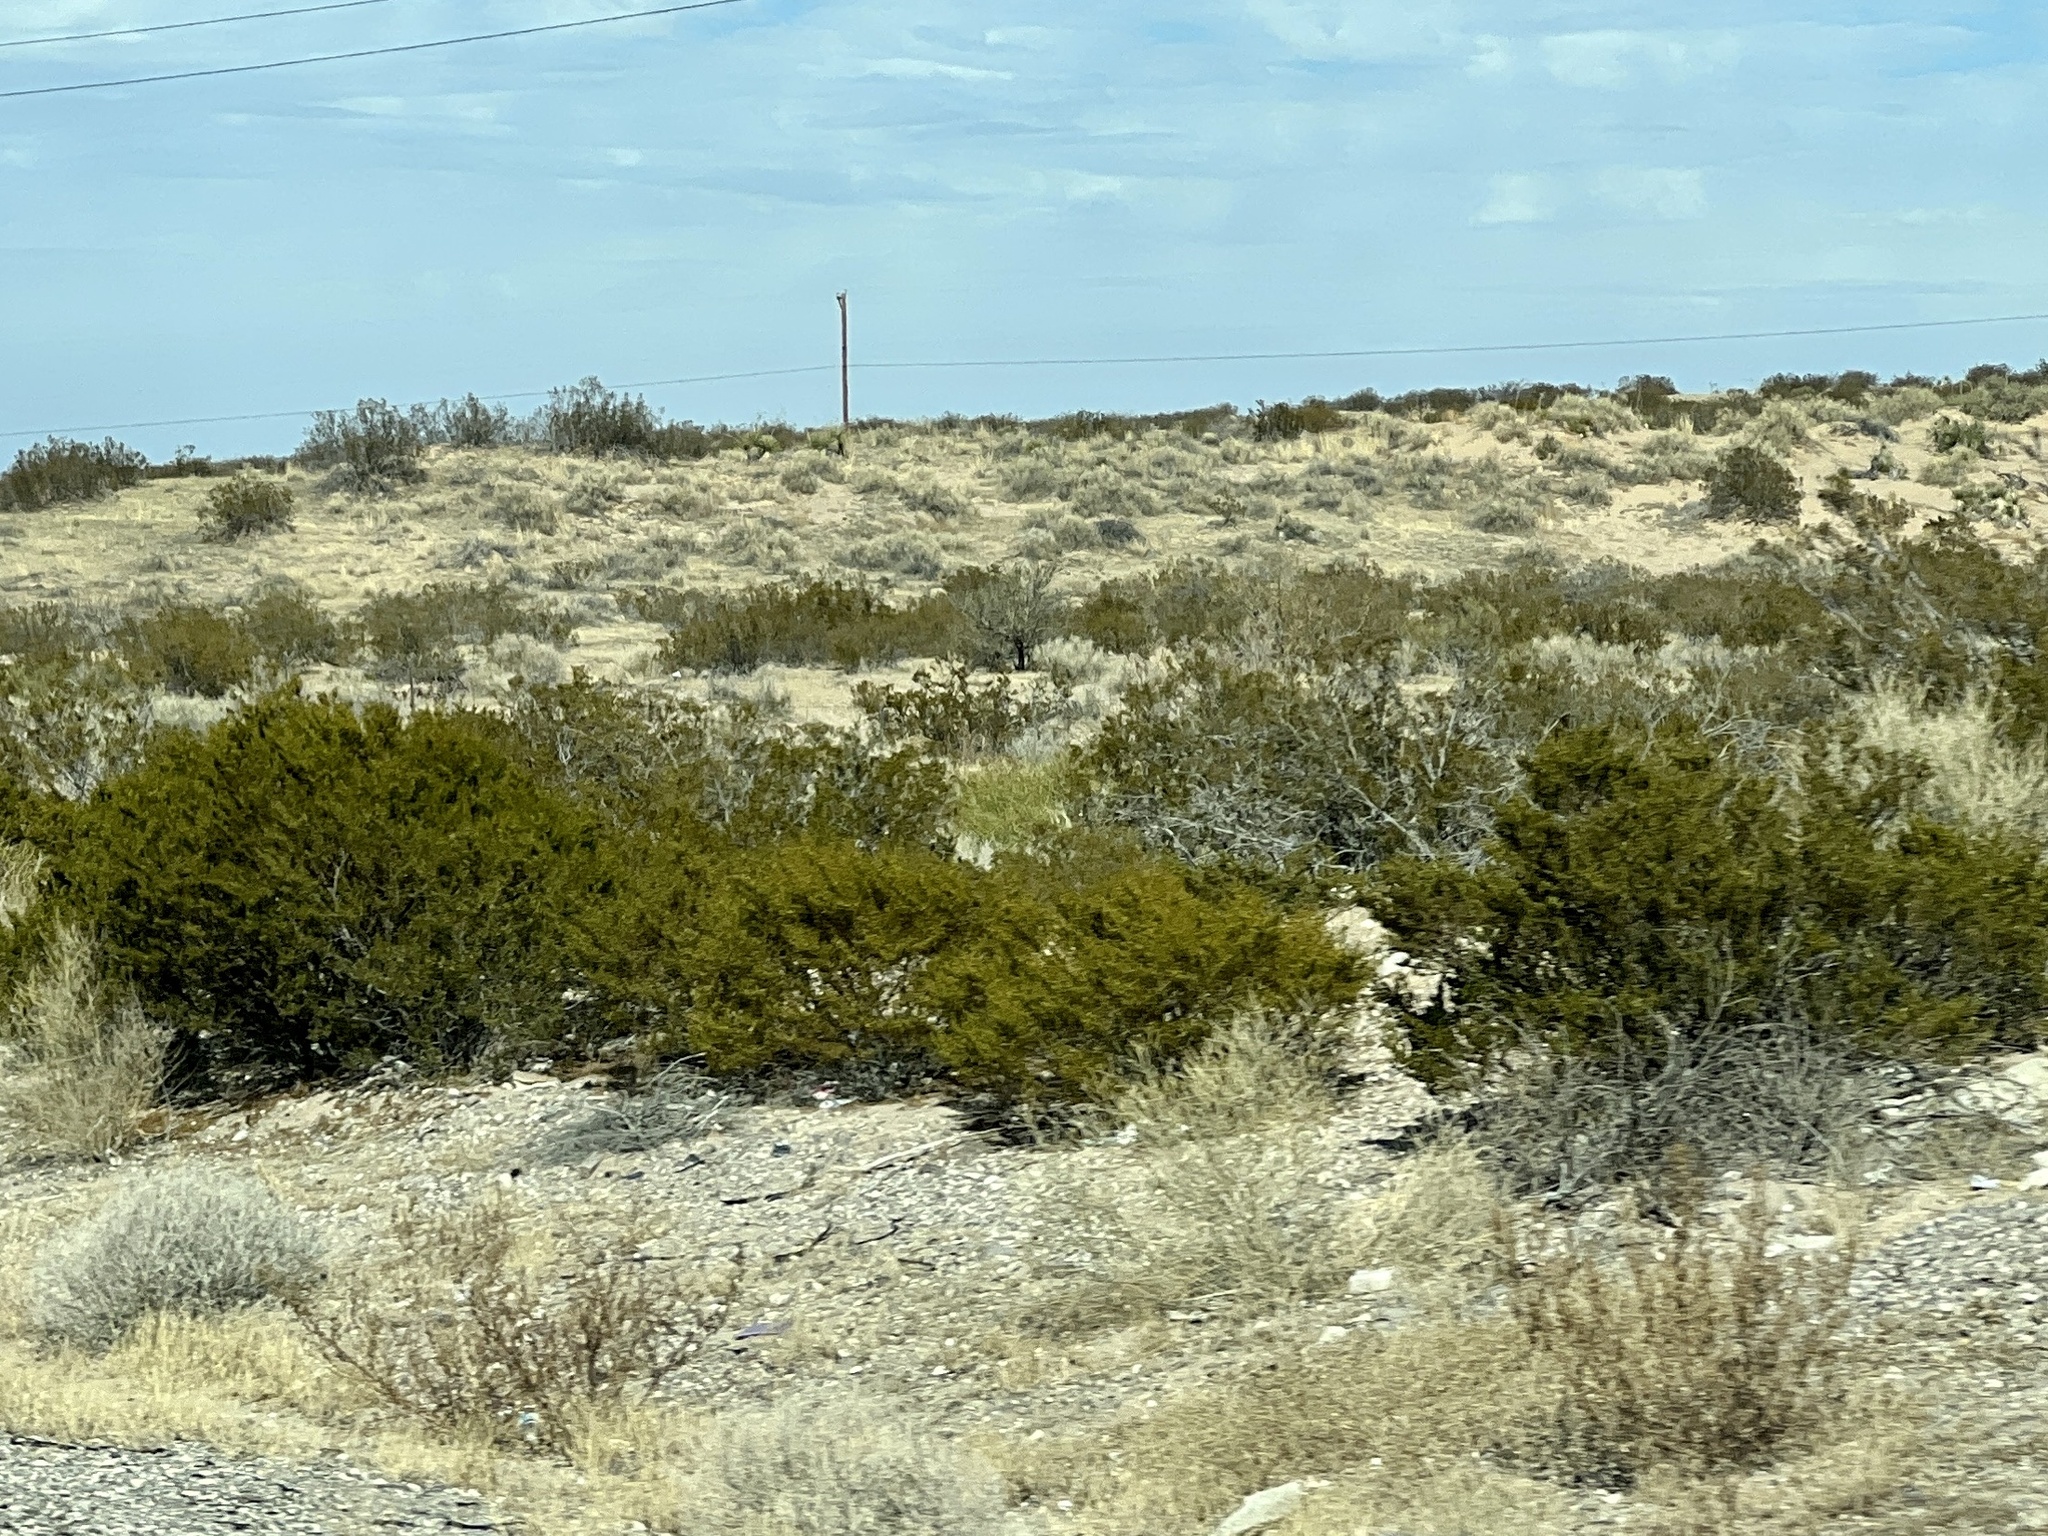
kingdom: Plantae
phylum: Tracheophyta
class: Magnoliopsida
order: Zygophyllales
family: Zygophyllaceae
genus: Larrea
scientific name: Larrea tridentata
